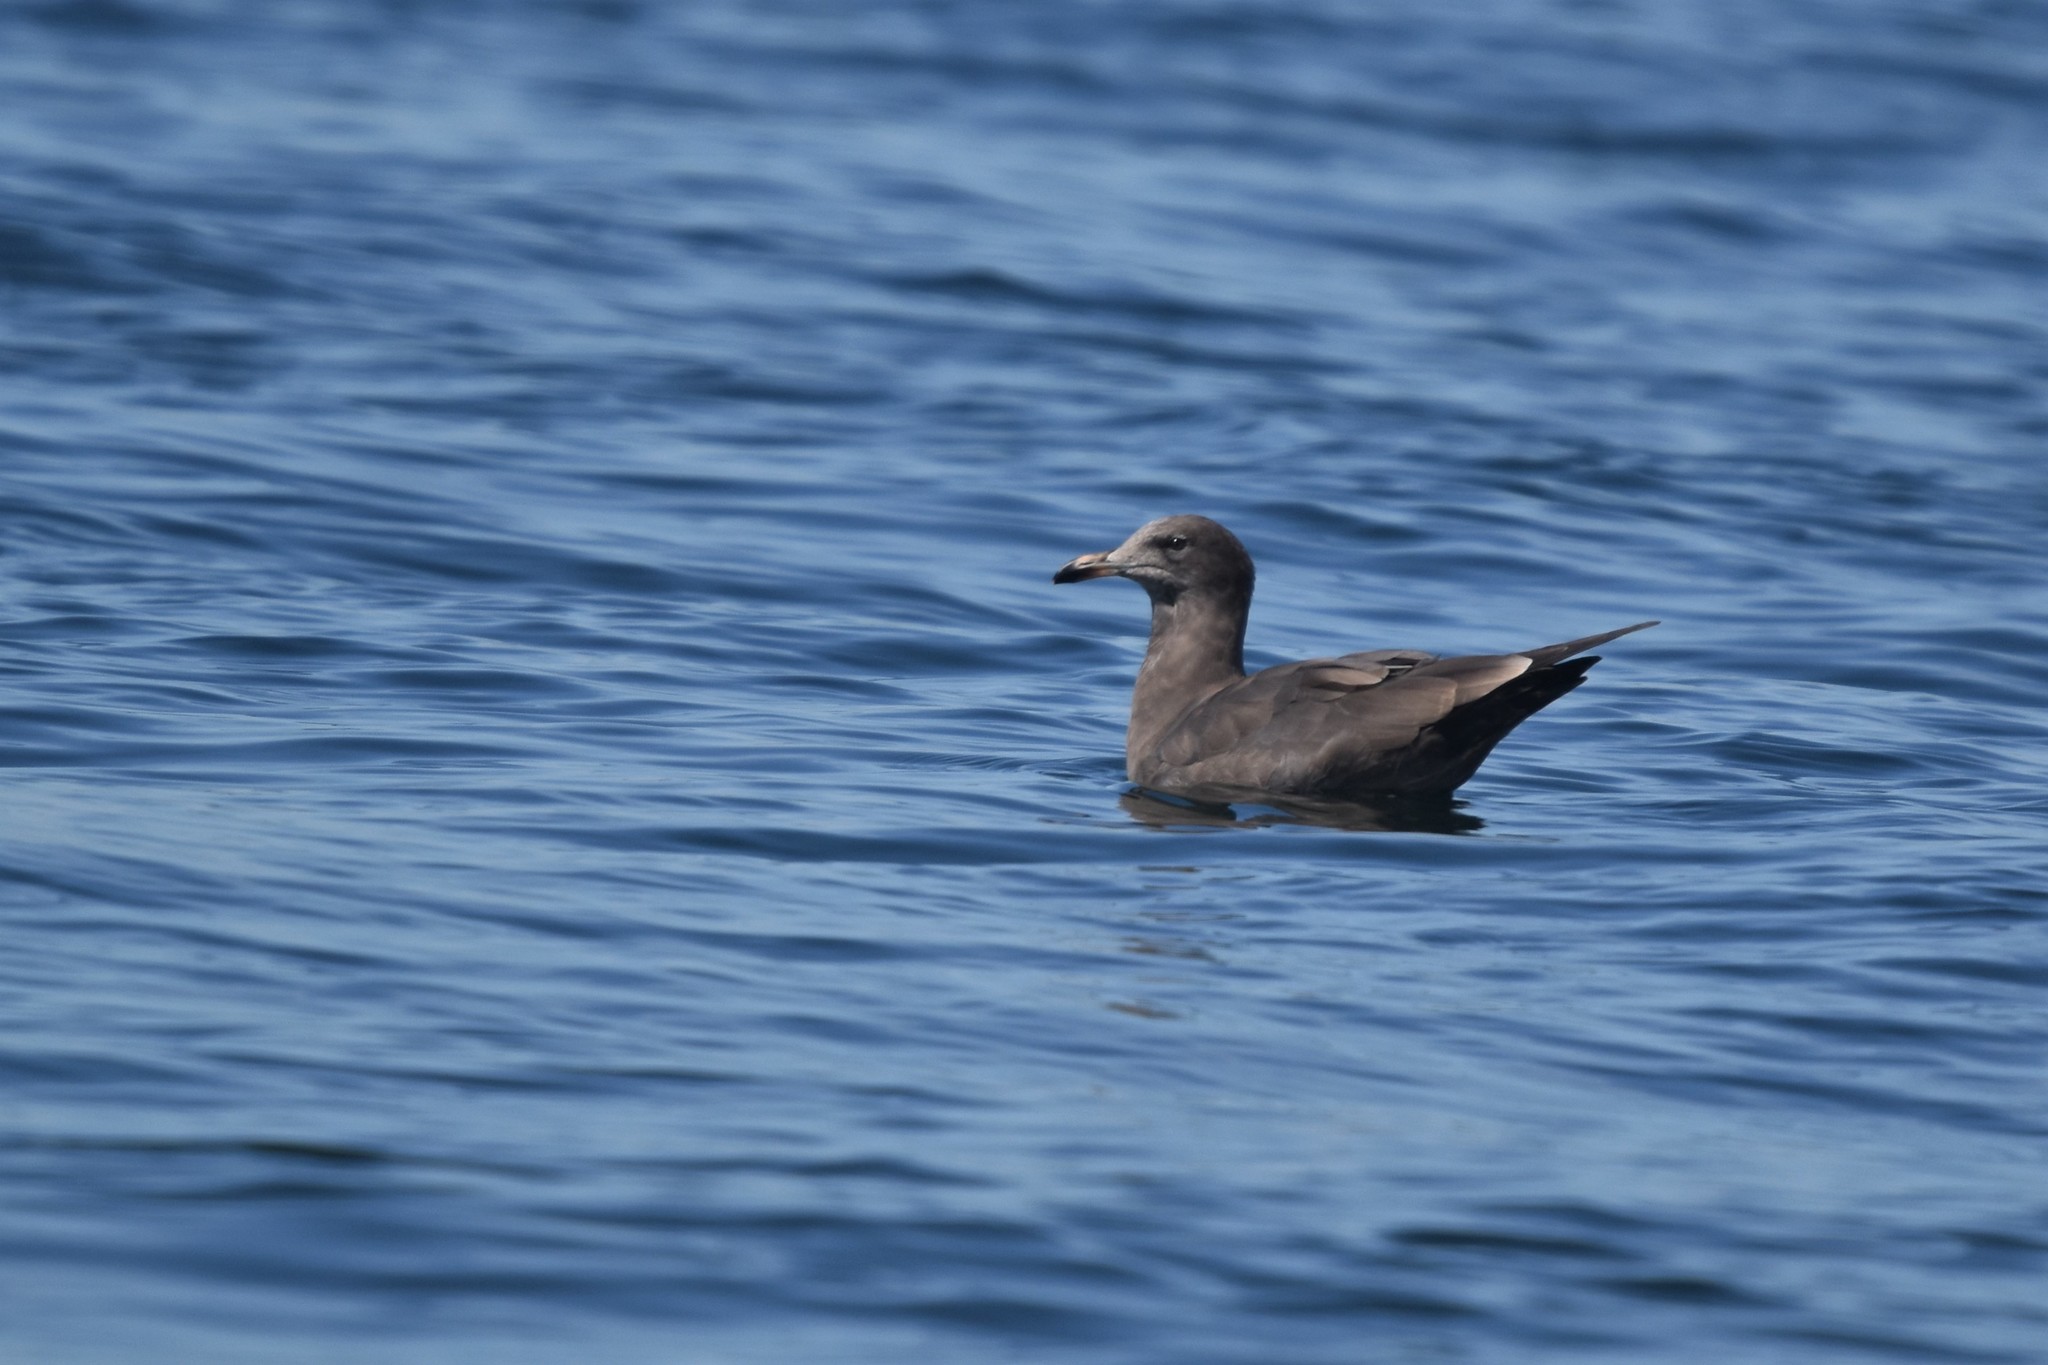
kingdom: Animalia
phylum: Chordata
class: Aves
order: Charadriiformes
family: Laridae
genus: Larus
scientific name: Larus heermanni
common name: Heermann's gull
